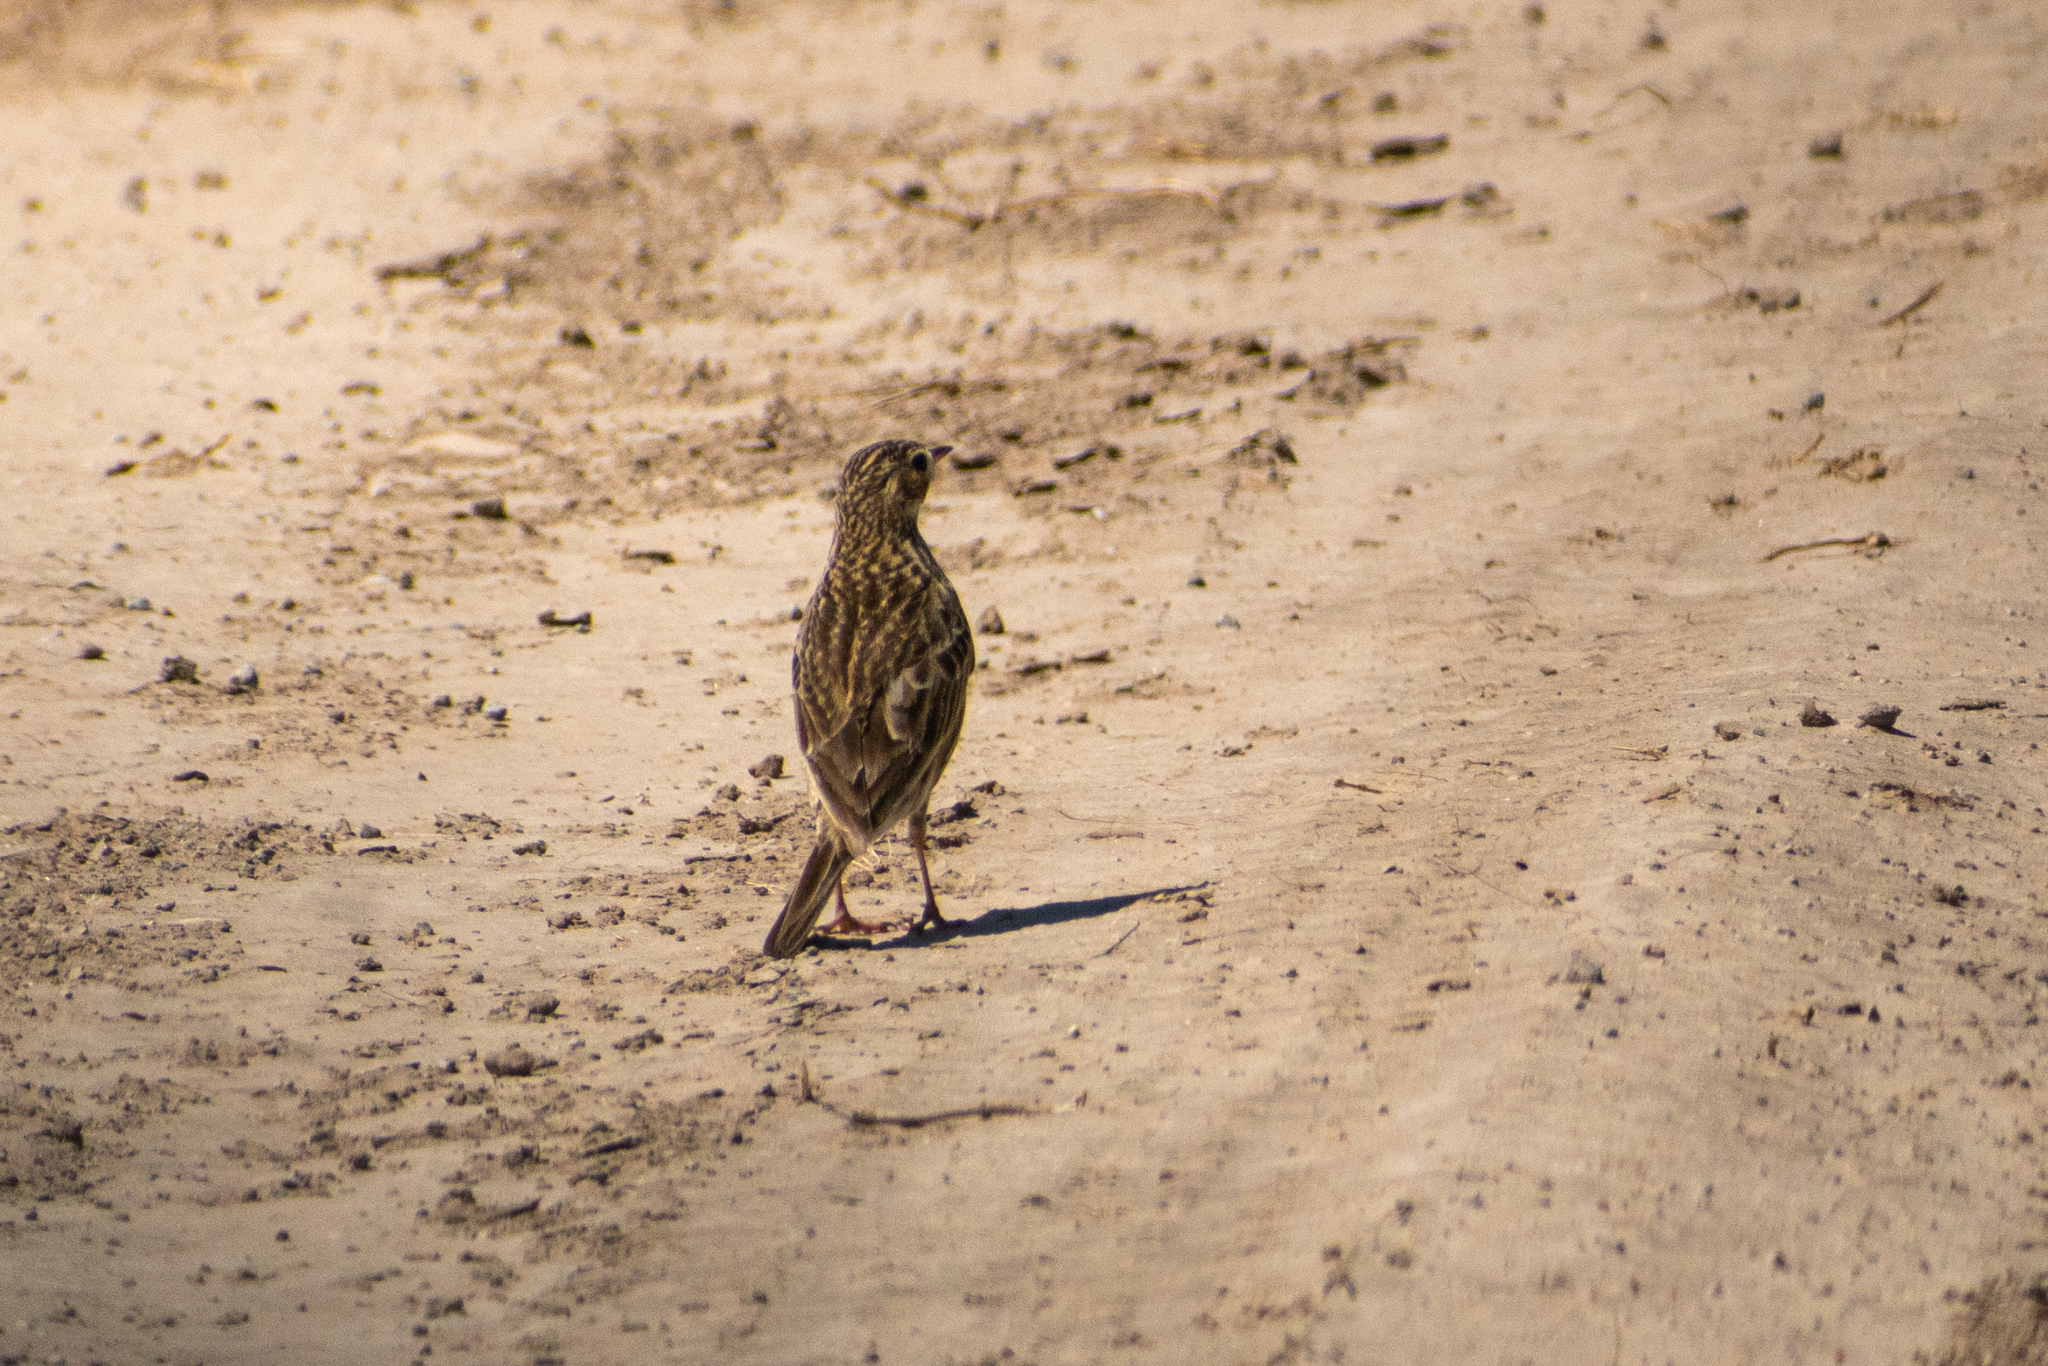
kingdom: Animalia
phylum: Chordata
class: Aves
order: Passeriformes
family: Motacillidae
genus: Anthus
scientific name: Anthus furcatus
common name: Short-billed pipit
